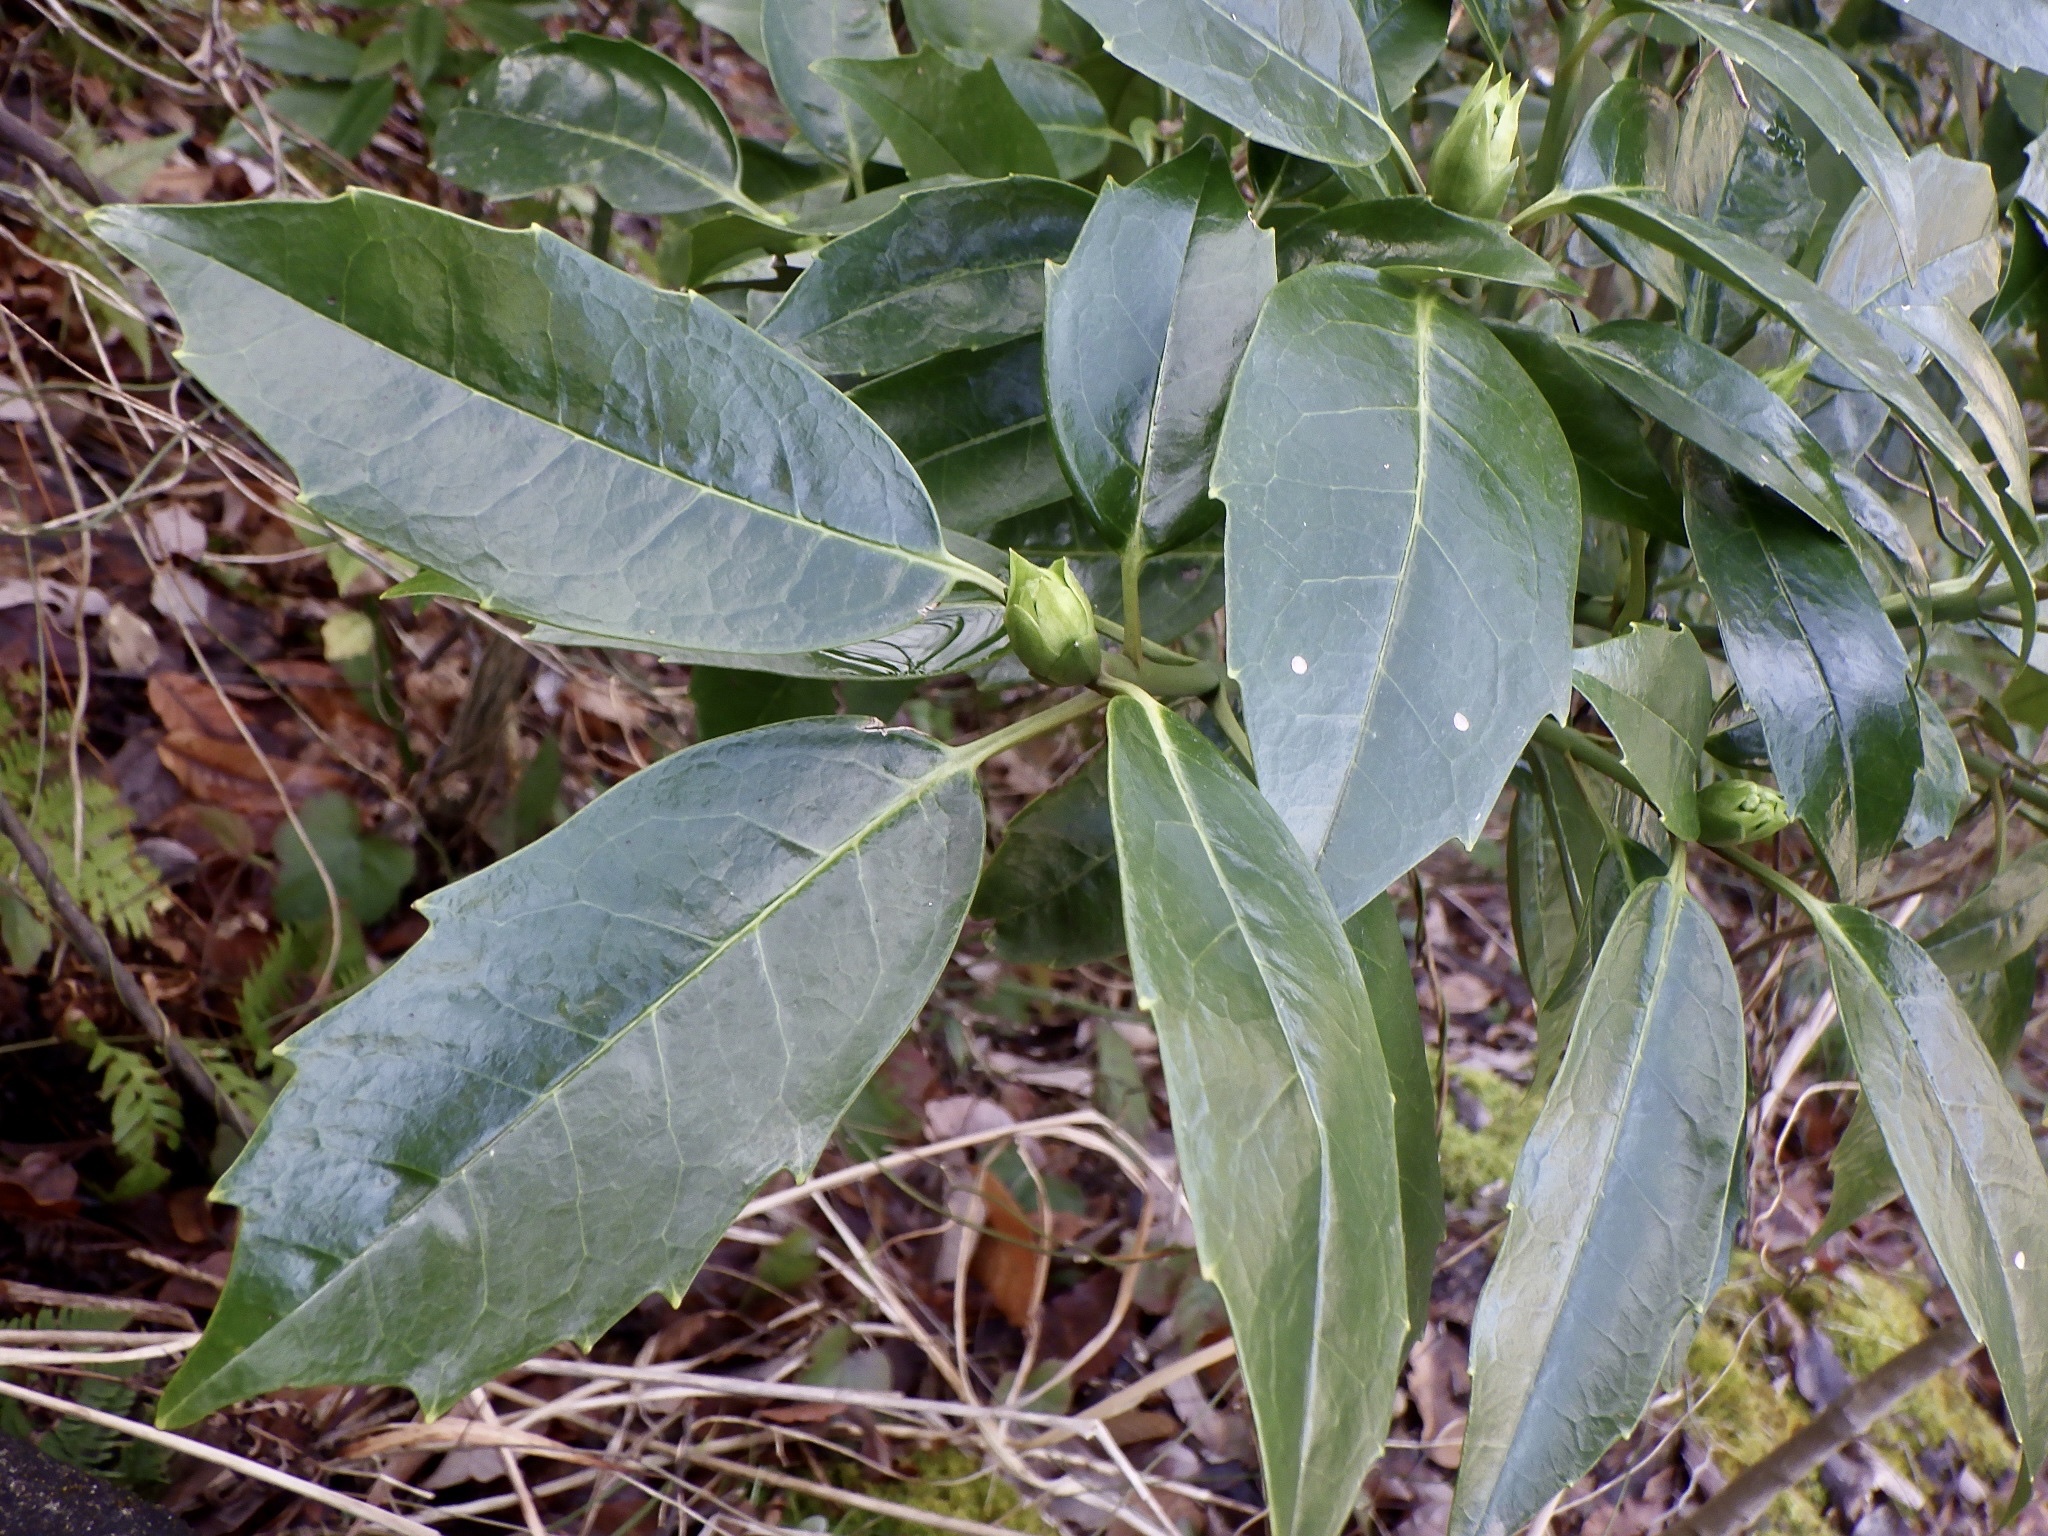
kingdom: Plantae
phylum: Tracheophyta
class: Magnoliopsida
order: Garryales
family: Garryaceae
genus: Aucuba
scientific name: Aucuba japonica
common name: Spotted-laurel
